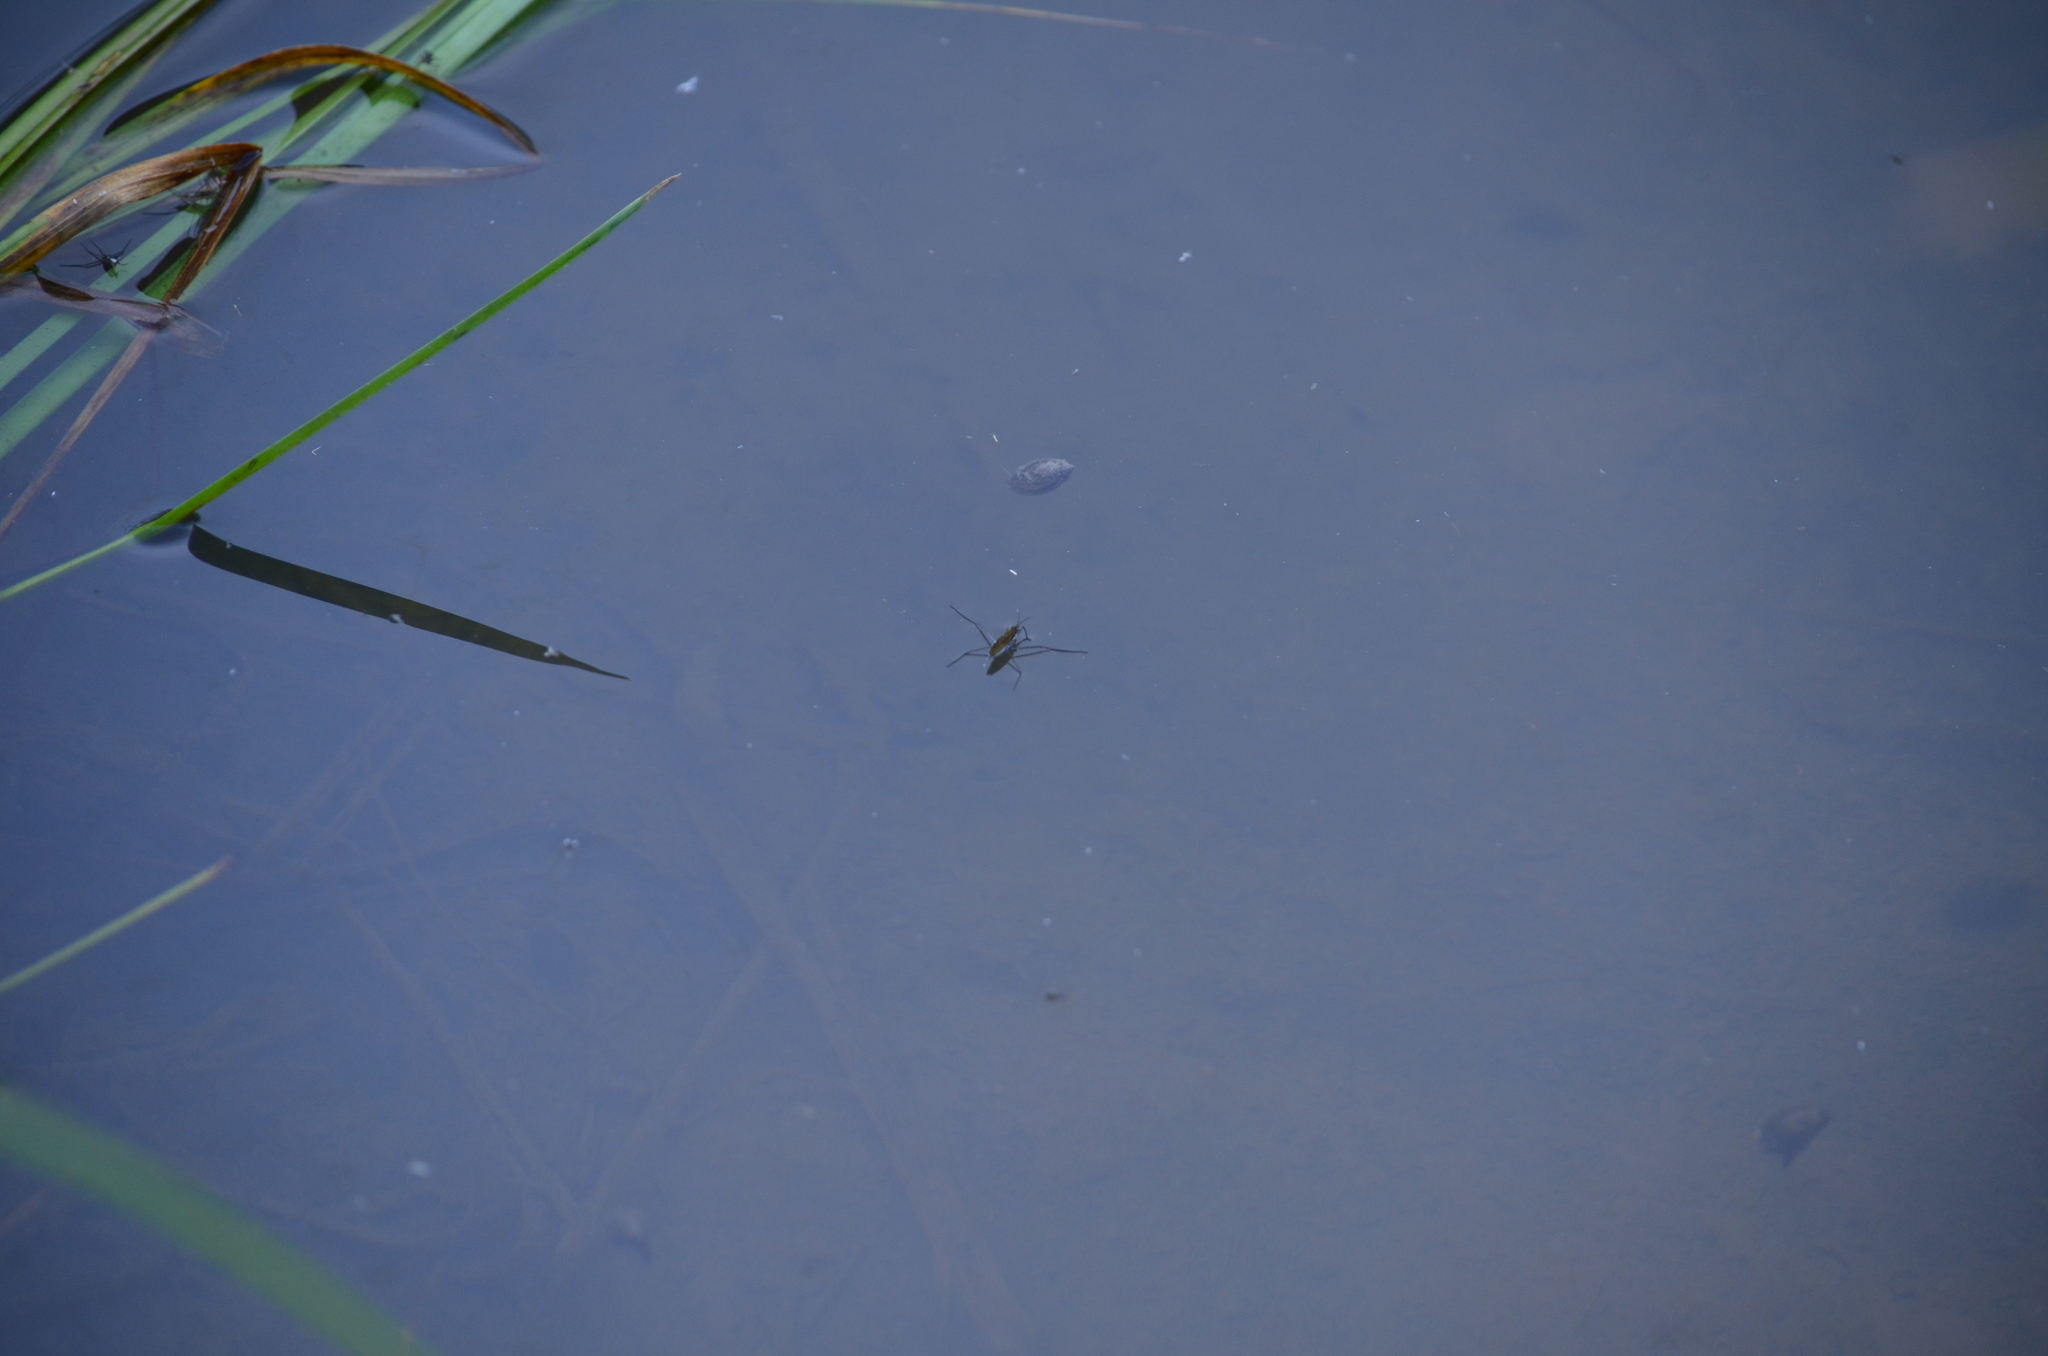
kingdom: Animalia
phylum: Arthropoda
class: Insecta
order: Hemiptera
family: Gerridae
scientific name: Gerridae
